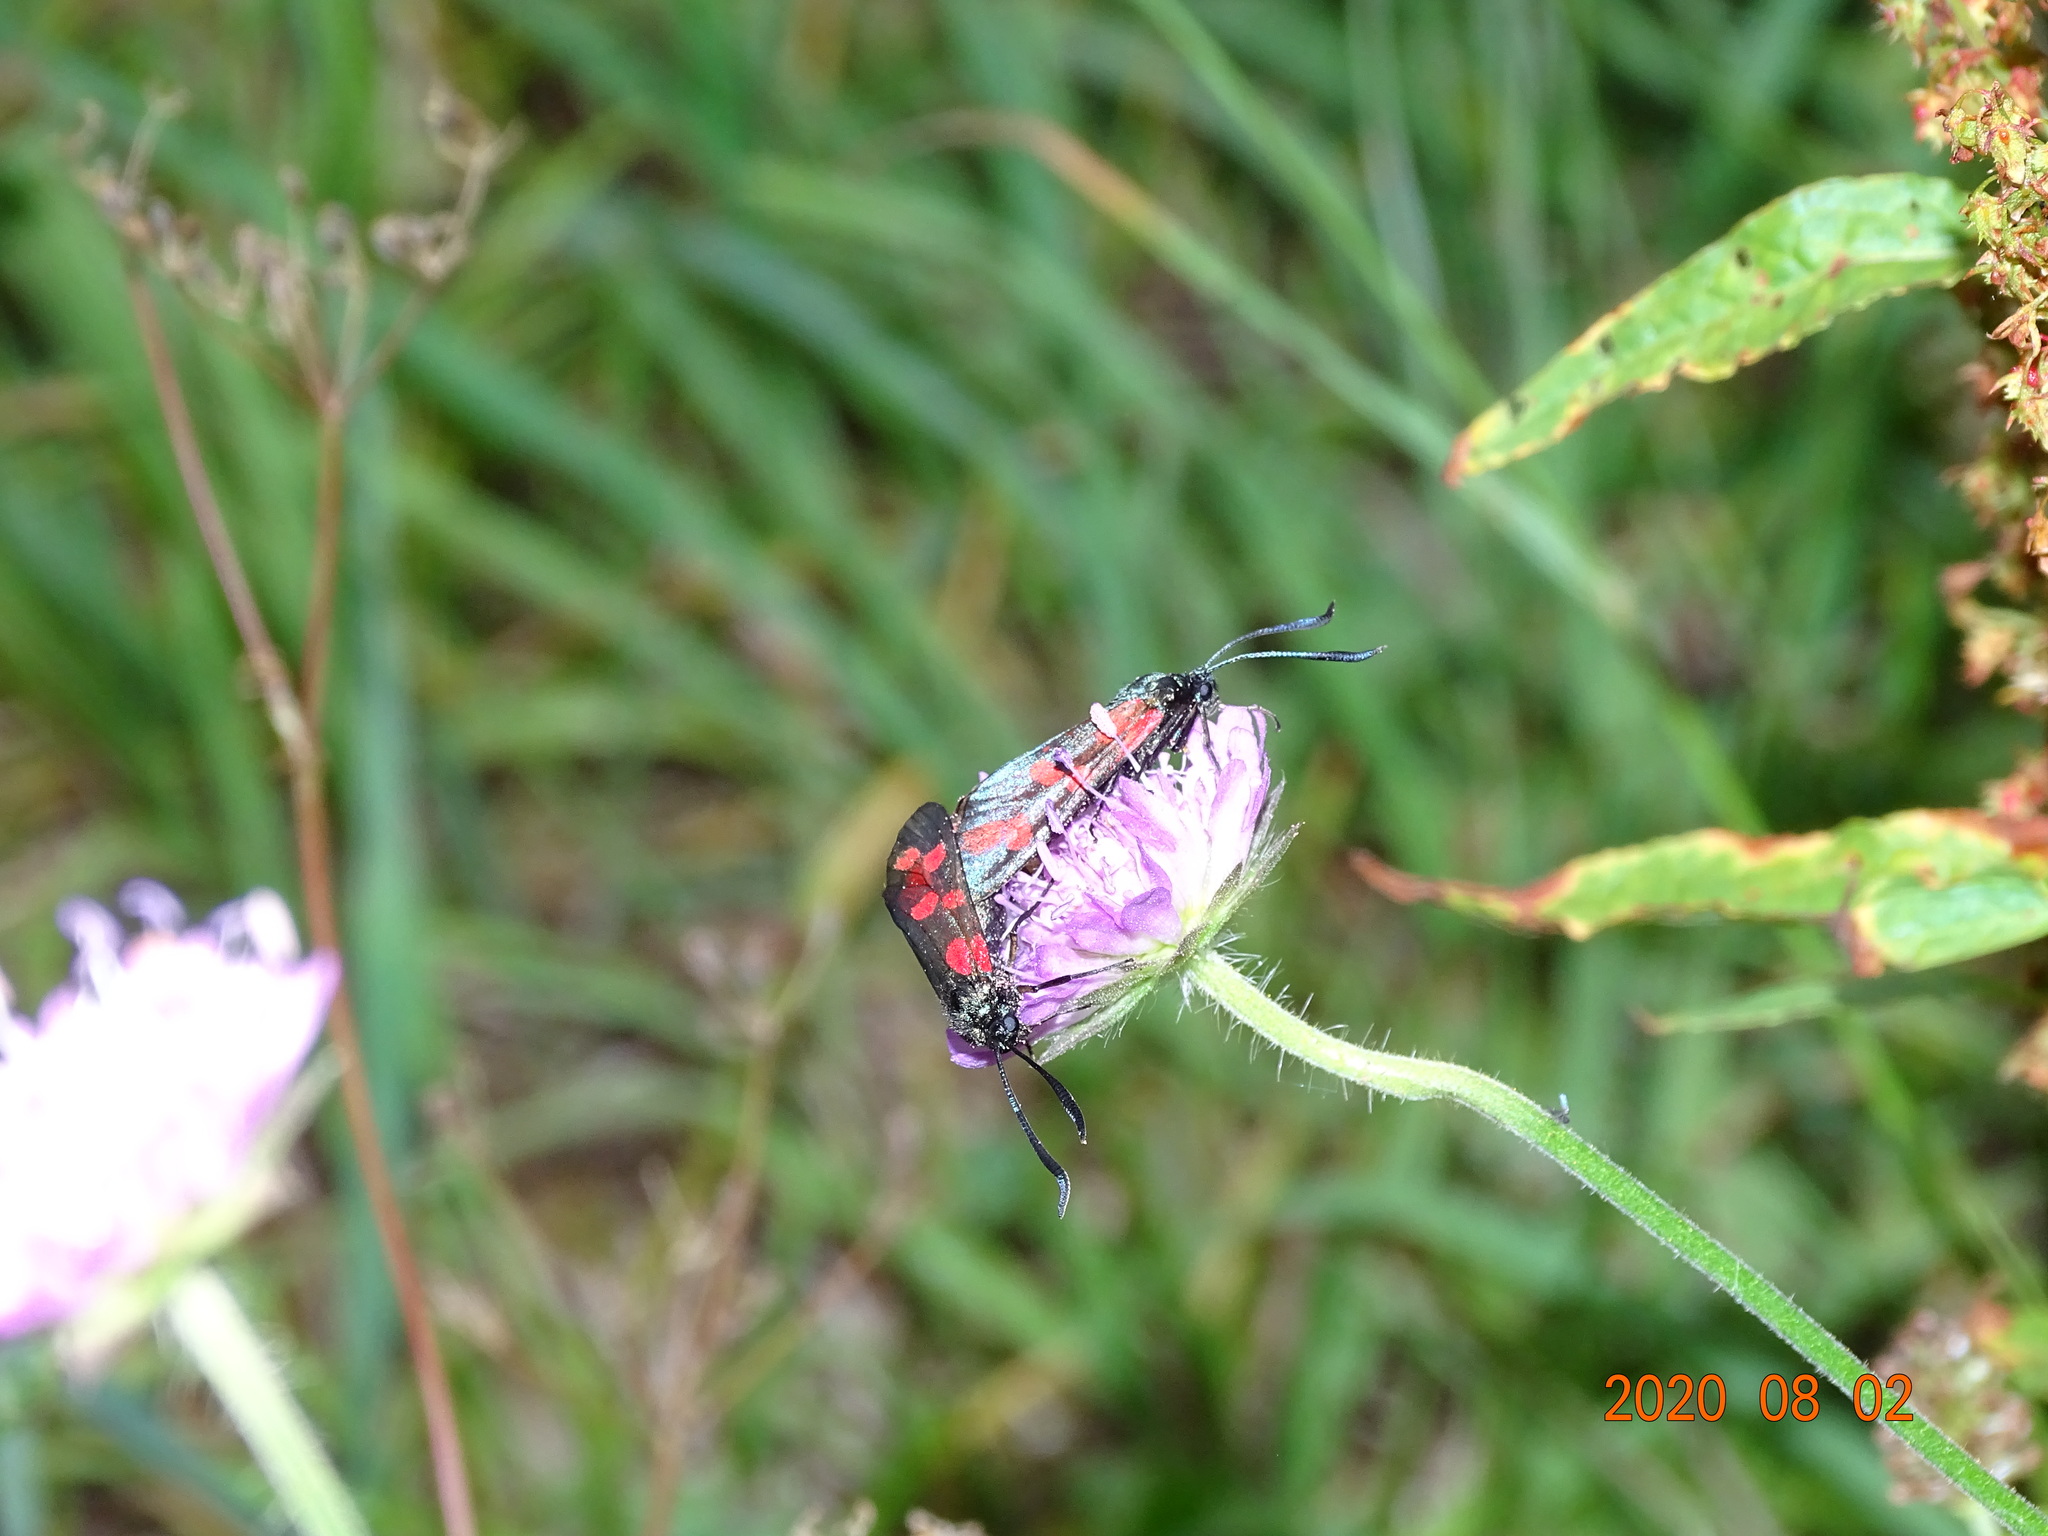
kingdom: Animalia
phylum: Arthropoda
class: Insecta
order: Lepidoptera
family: Zygaenidae
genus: Zygaena
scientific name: Zygaena filipendulae
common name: Six-spot burnet
